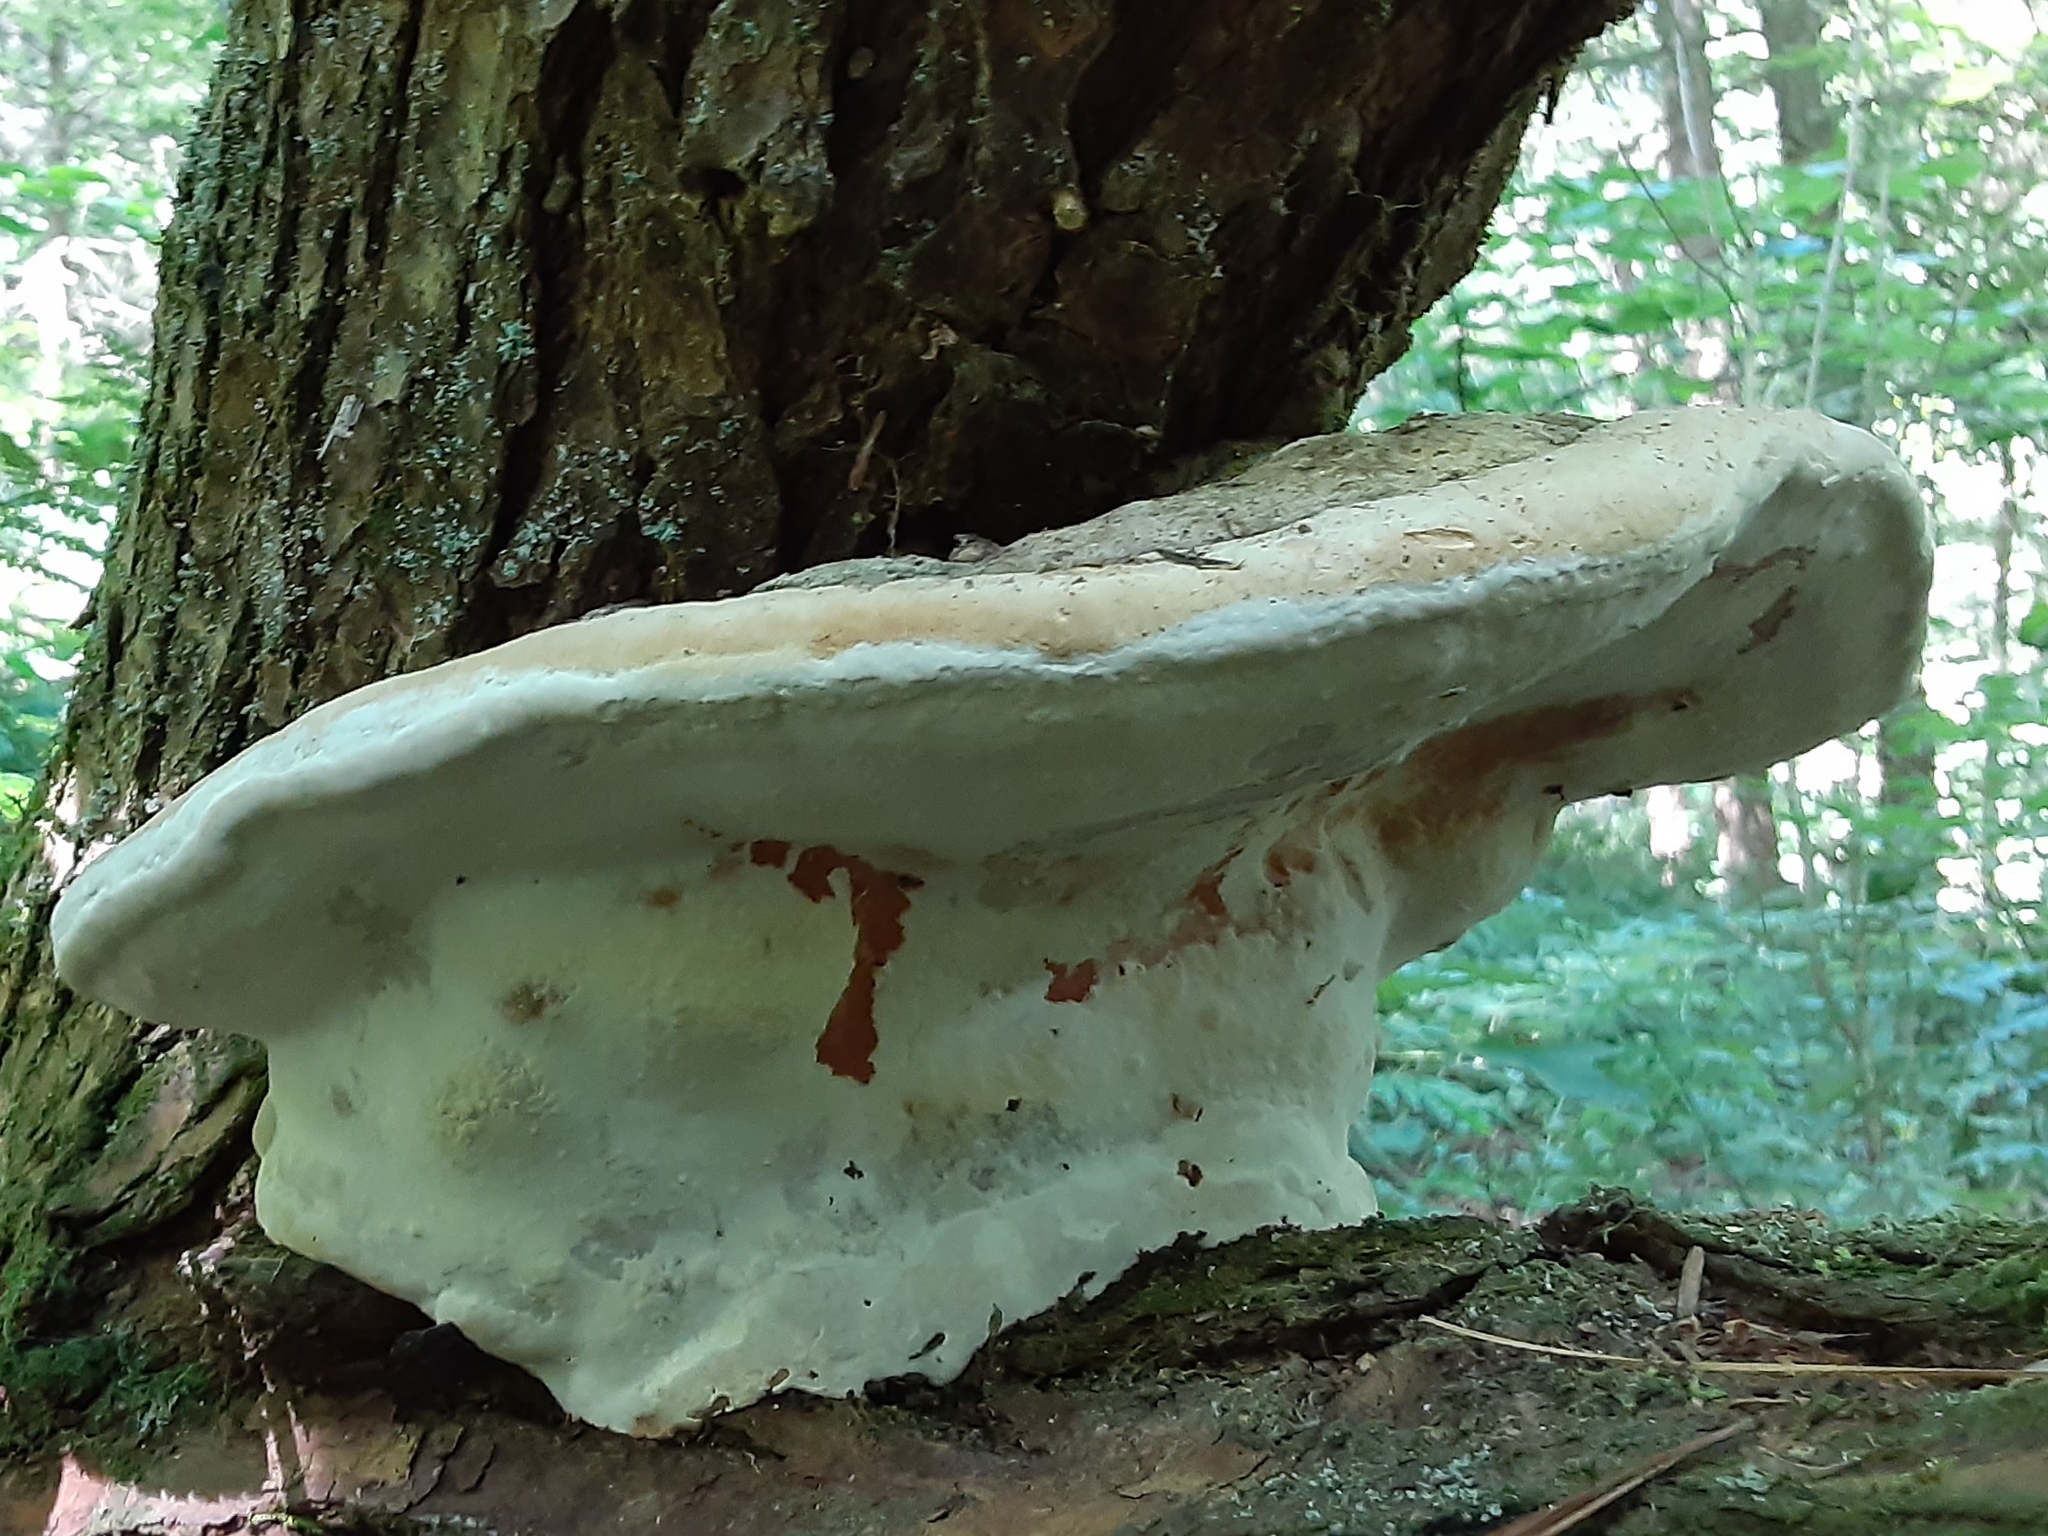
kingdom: Fungi
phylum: Basidiomycota
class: Agaricomycetes
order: Polyporales
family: Fomitopsidaceae
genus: Fomitopsis
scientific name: Fomitopsis ochracea
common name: American brown fomitopsis
